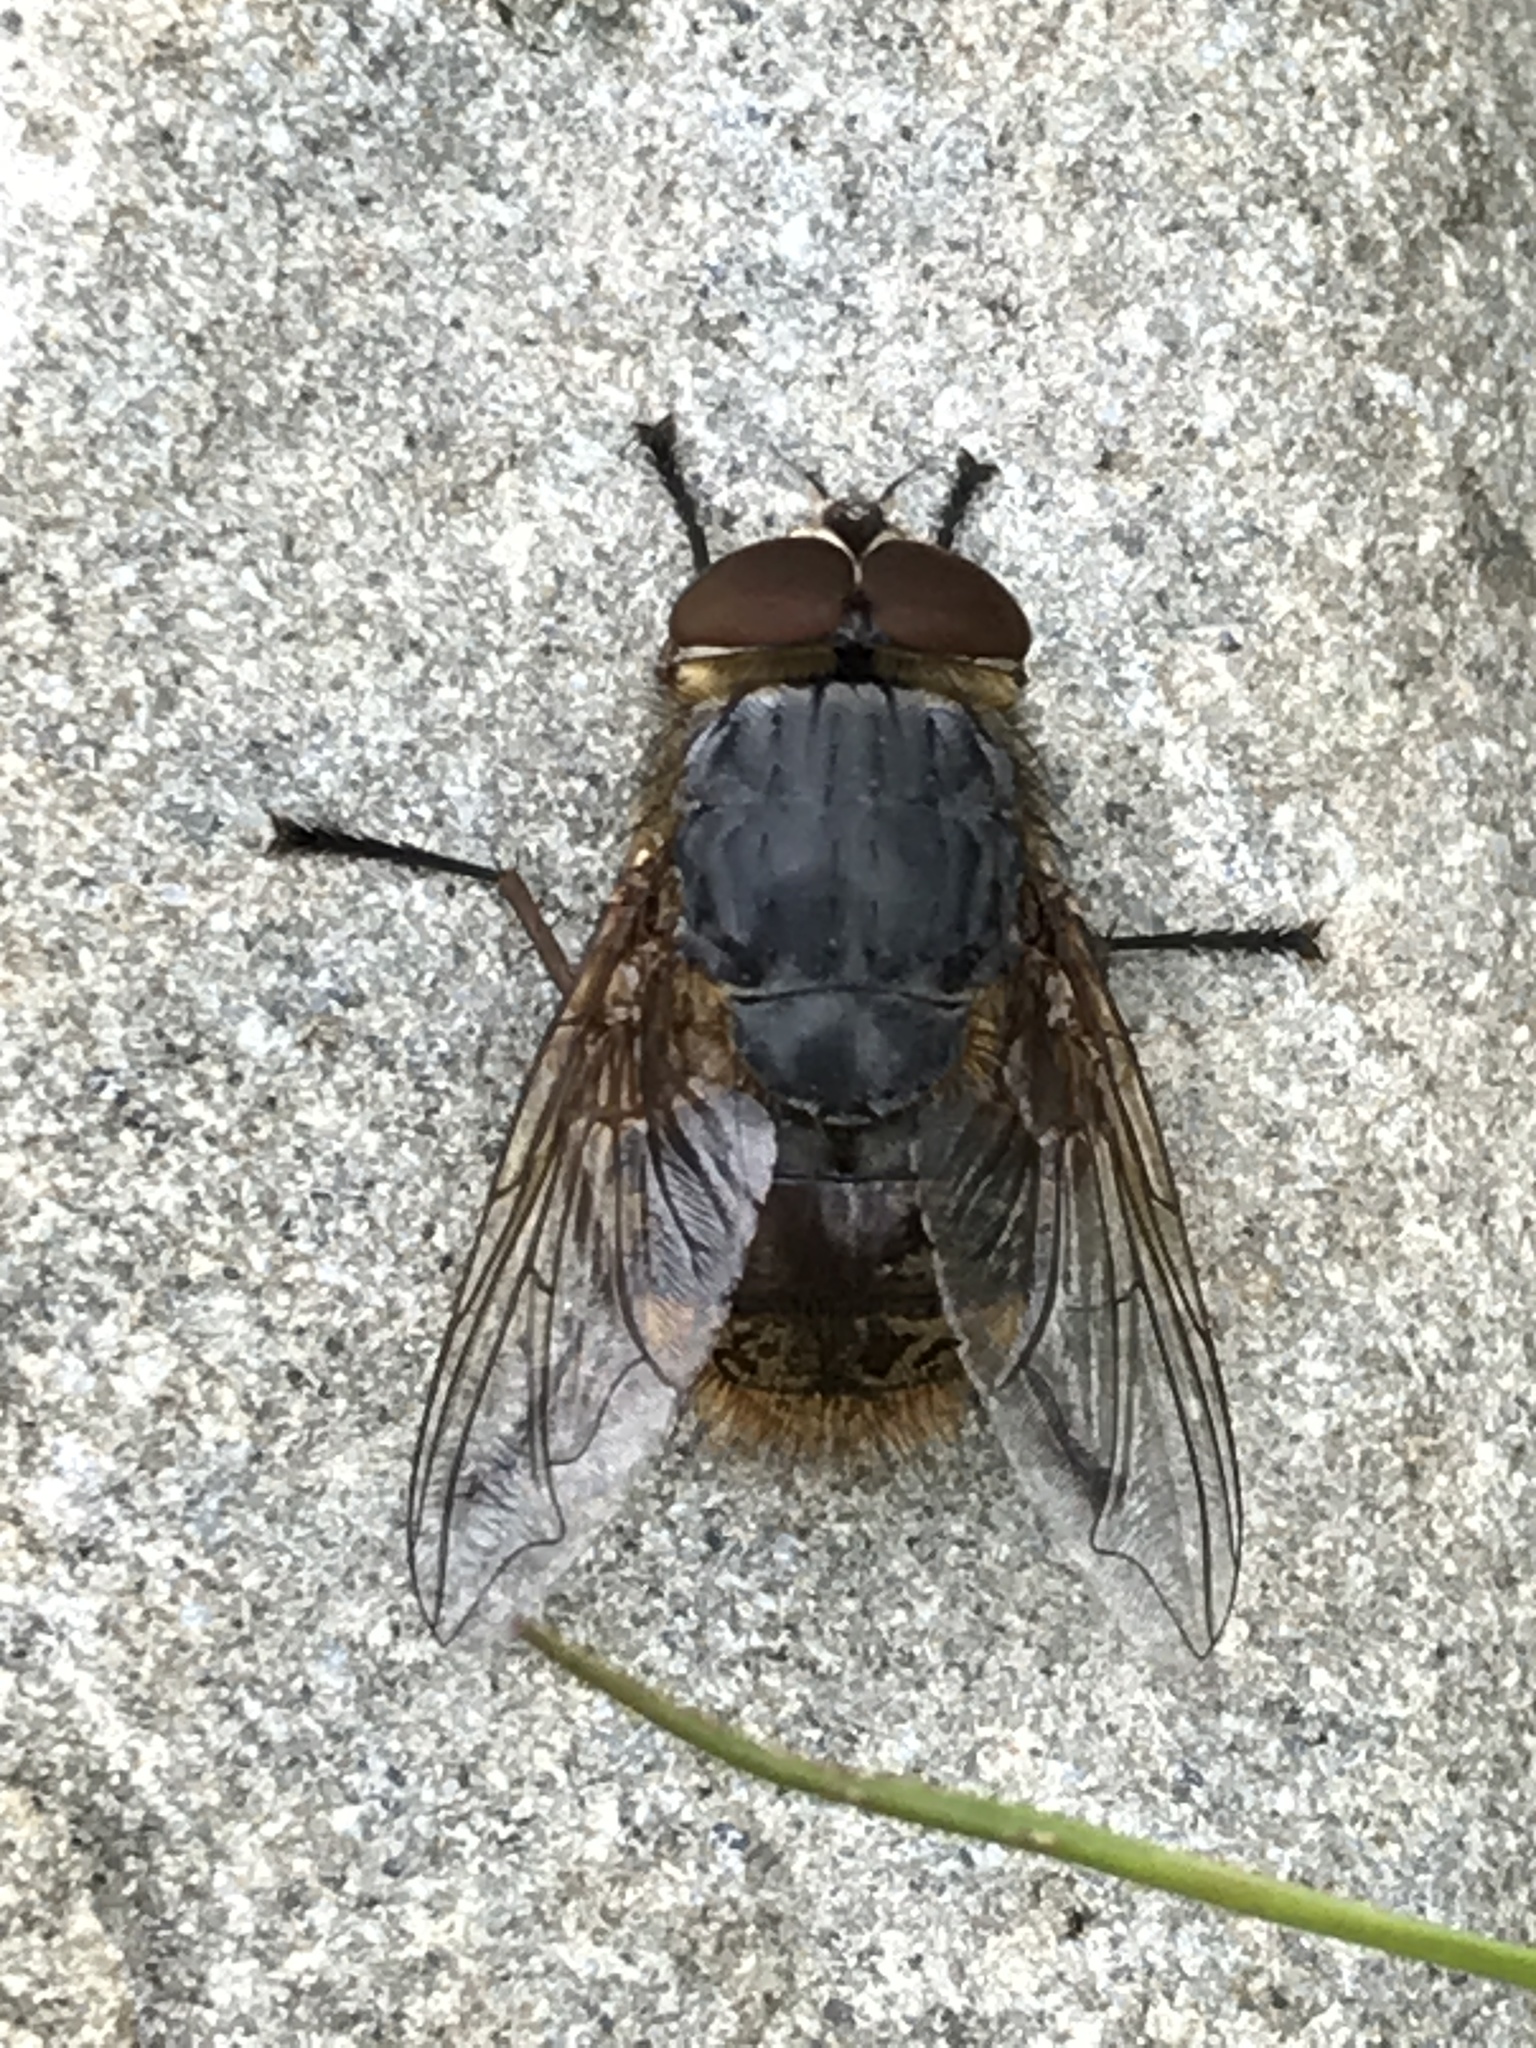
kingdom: Animalia
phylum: Arthropoda
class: Insecta
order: Diptera
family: Calliphoridae
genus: Calliphora
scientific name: Calliphora stygia
